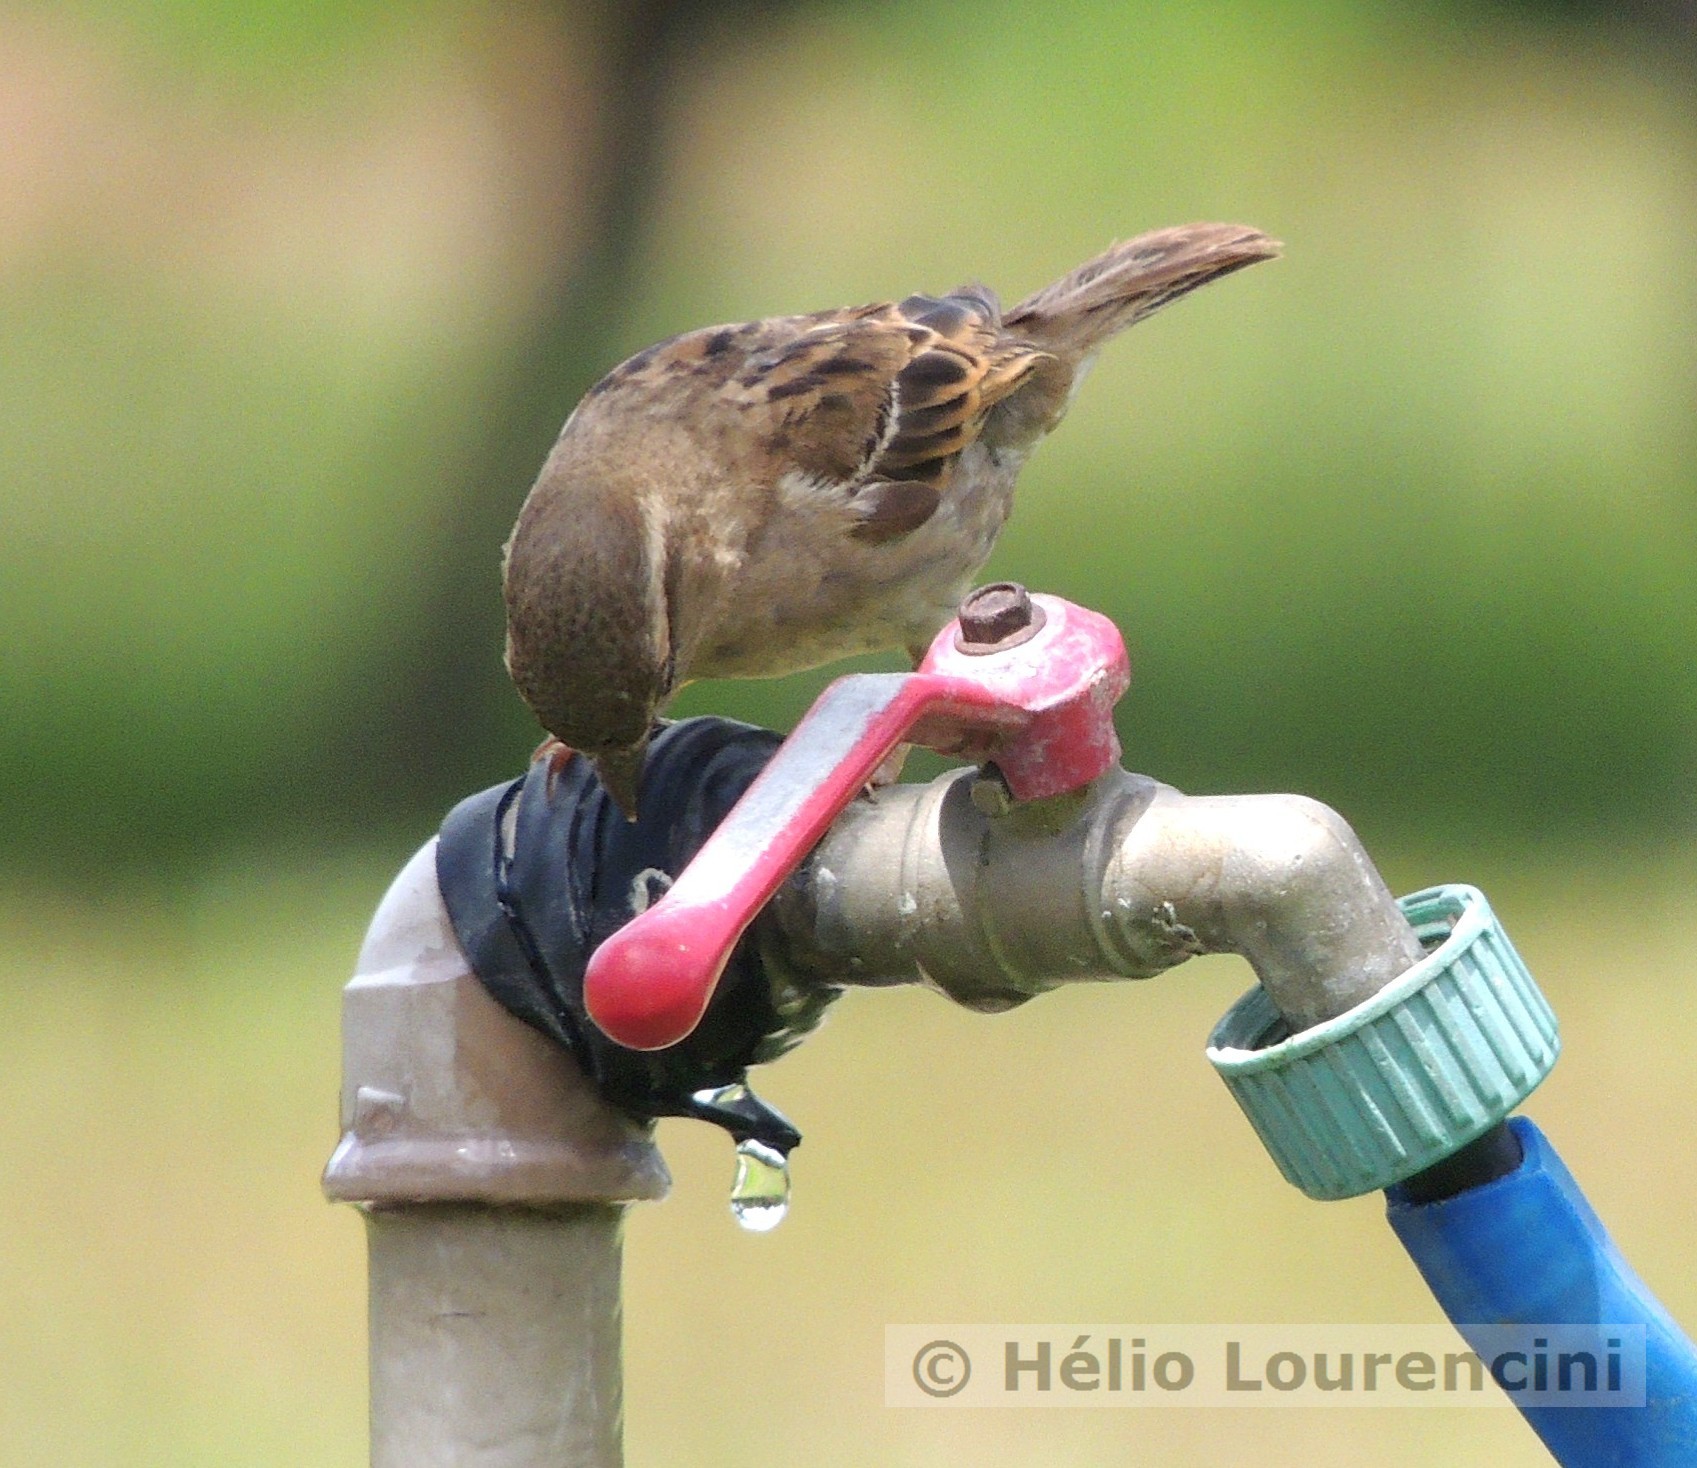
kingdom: Animalia
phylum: Chordata
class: Aves
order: Passeriformes
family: Passeridae
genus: Passer
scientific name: Passer domesticus
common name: House sparrow
